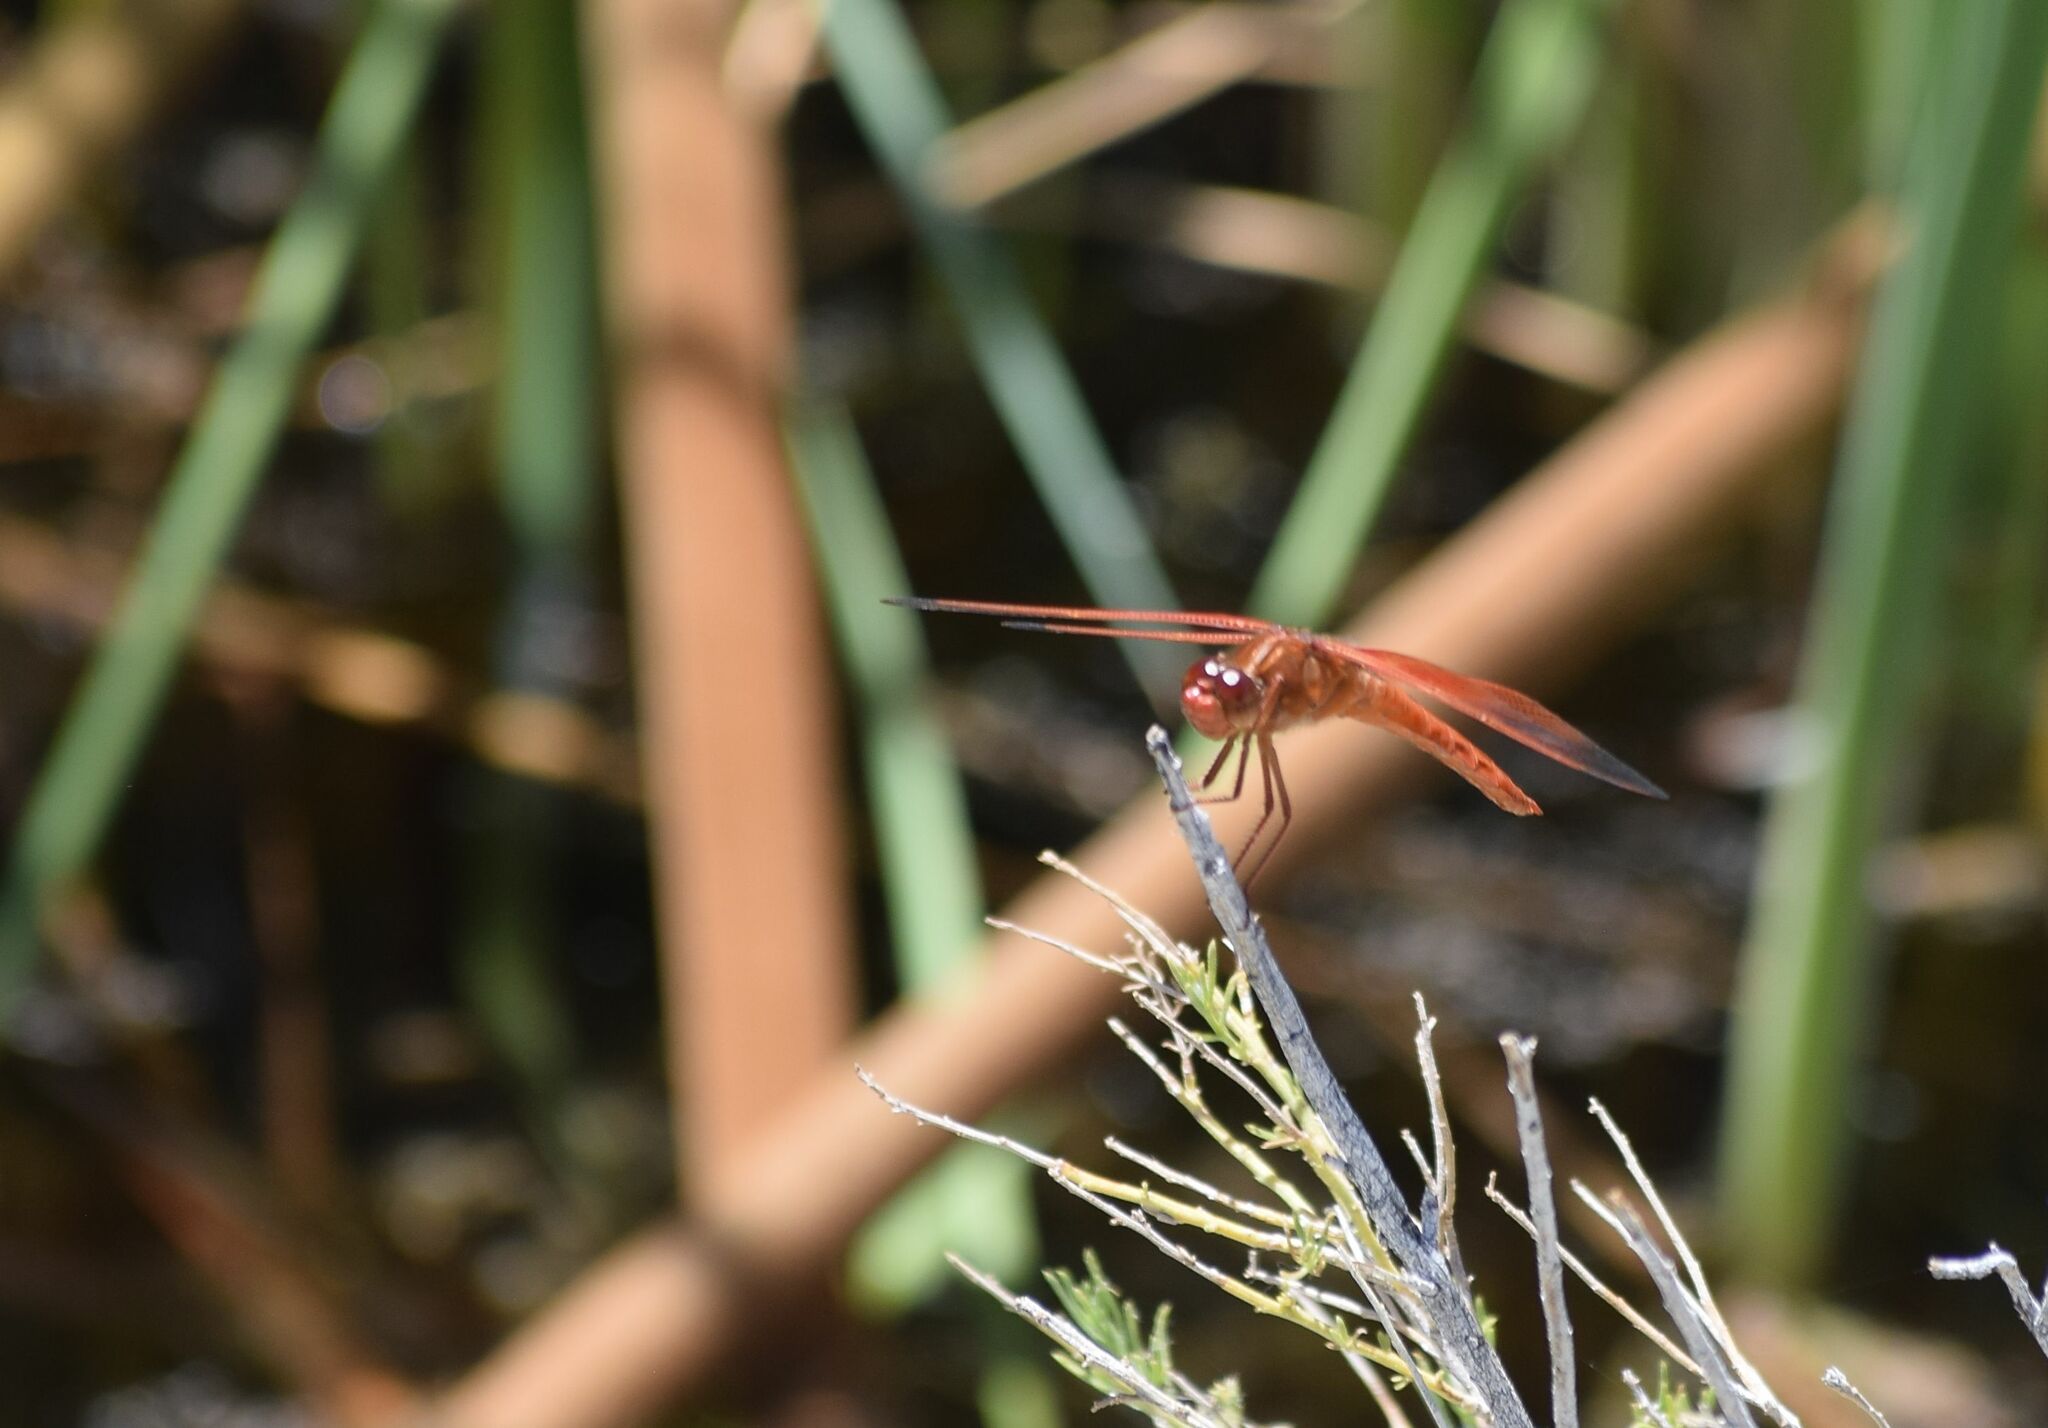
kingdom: Animalia
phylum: Arthropoda
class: Insecta
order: Odonata
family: Libellulidae
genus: Libellula
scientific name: Libellula saturata
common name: Flame skimmer
